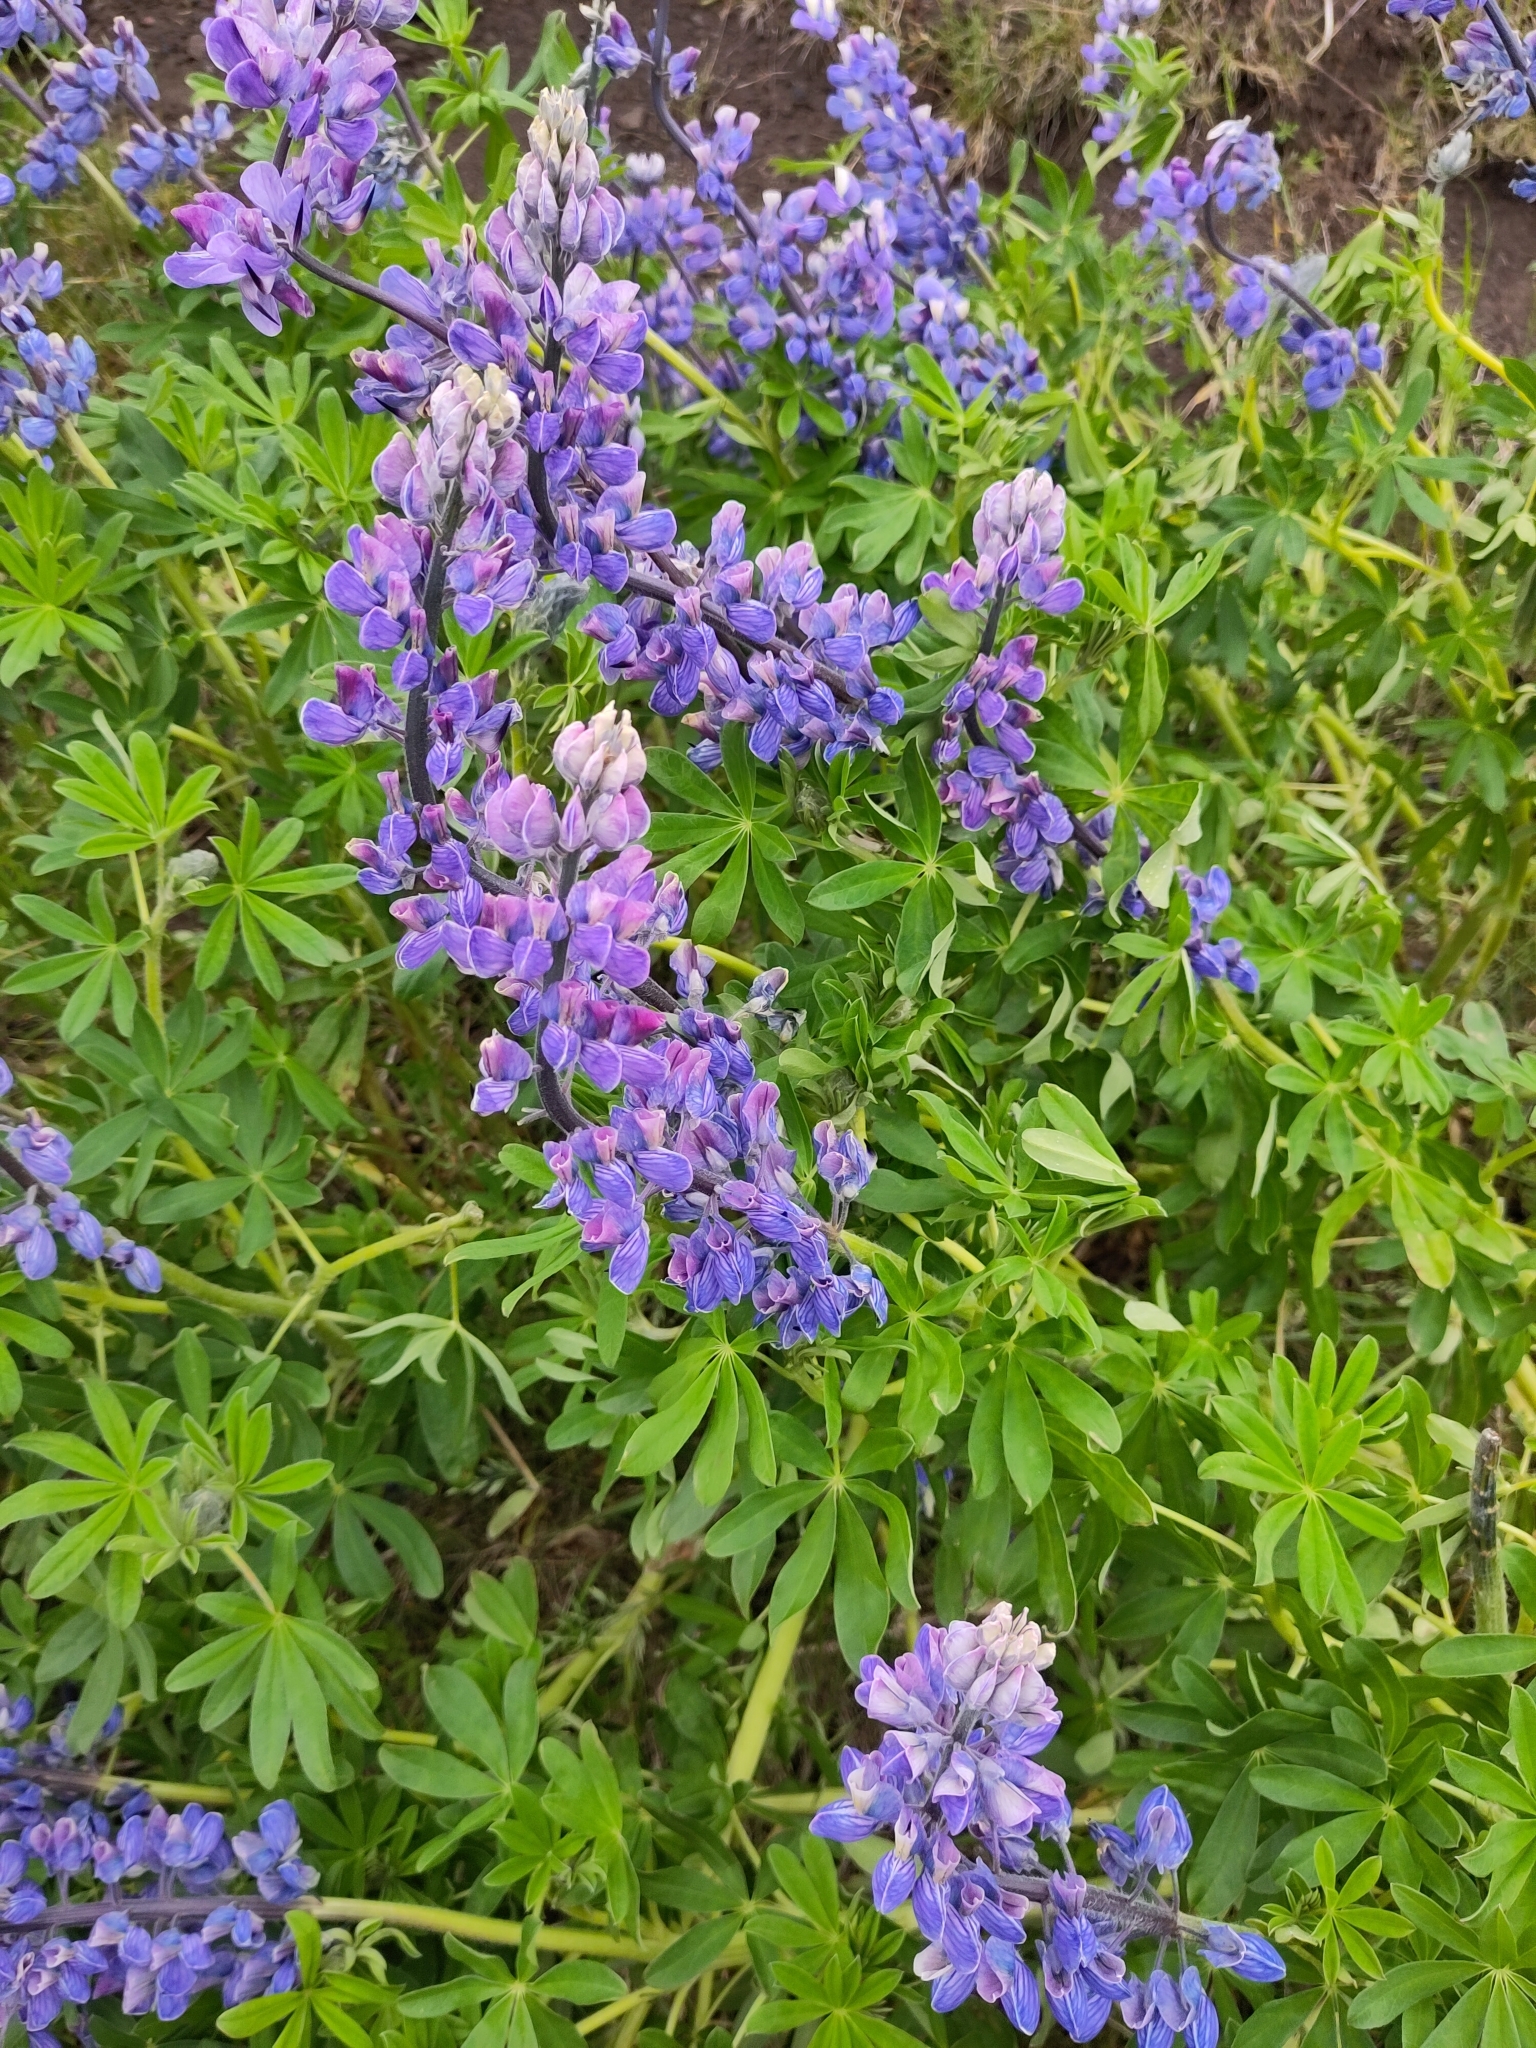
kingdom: Plantae
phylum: Tracheophyta
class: Magnoliopsida
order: Fabales
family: Fabaceae
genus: Lupinus
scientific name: Lupinus nootkatensis
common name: Nootka lupine
